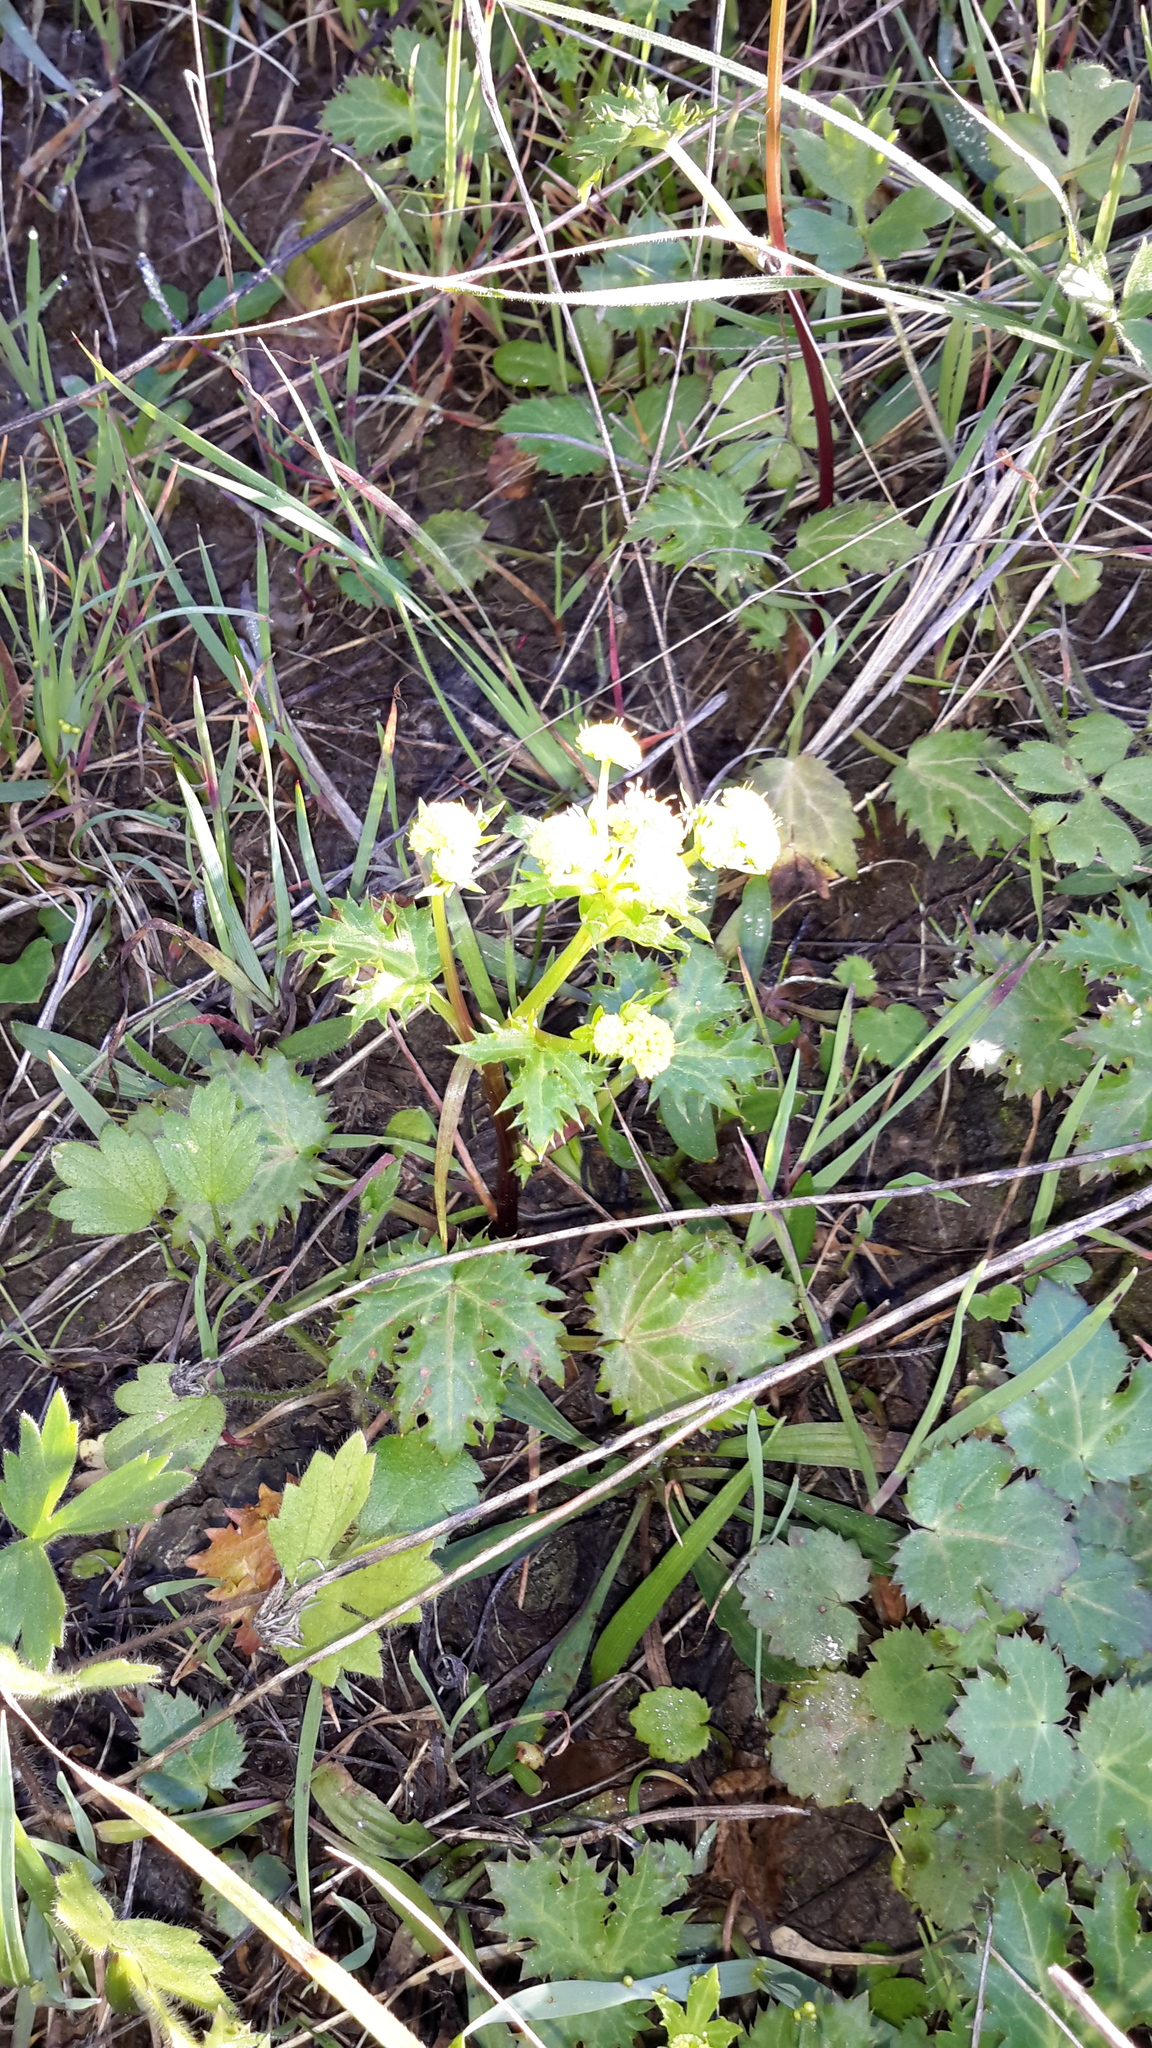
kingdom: Plantae
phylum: Tracheophyta
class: Magnoliopsida
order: Apiales
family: Apiaceae
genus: Sanicula
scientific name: Sanicula laciniata
